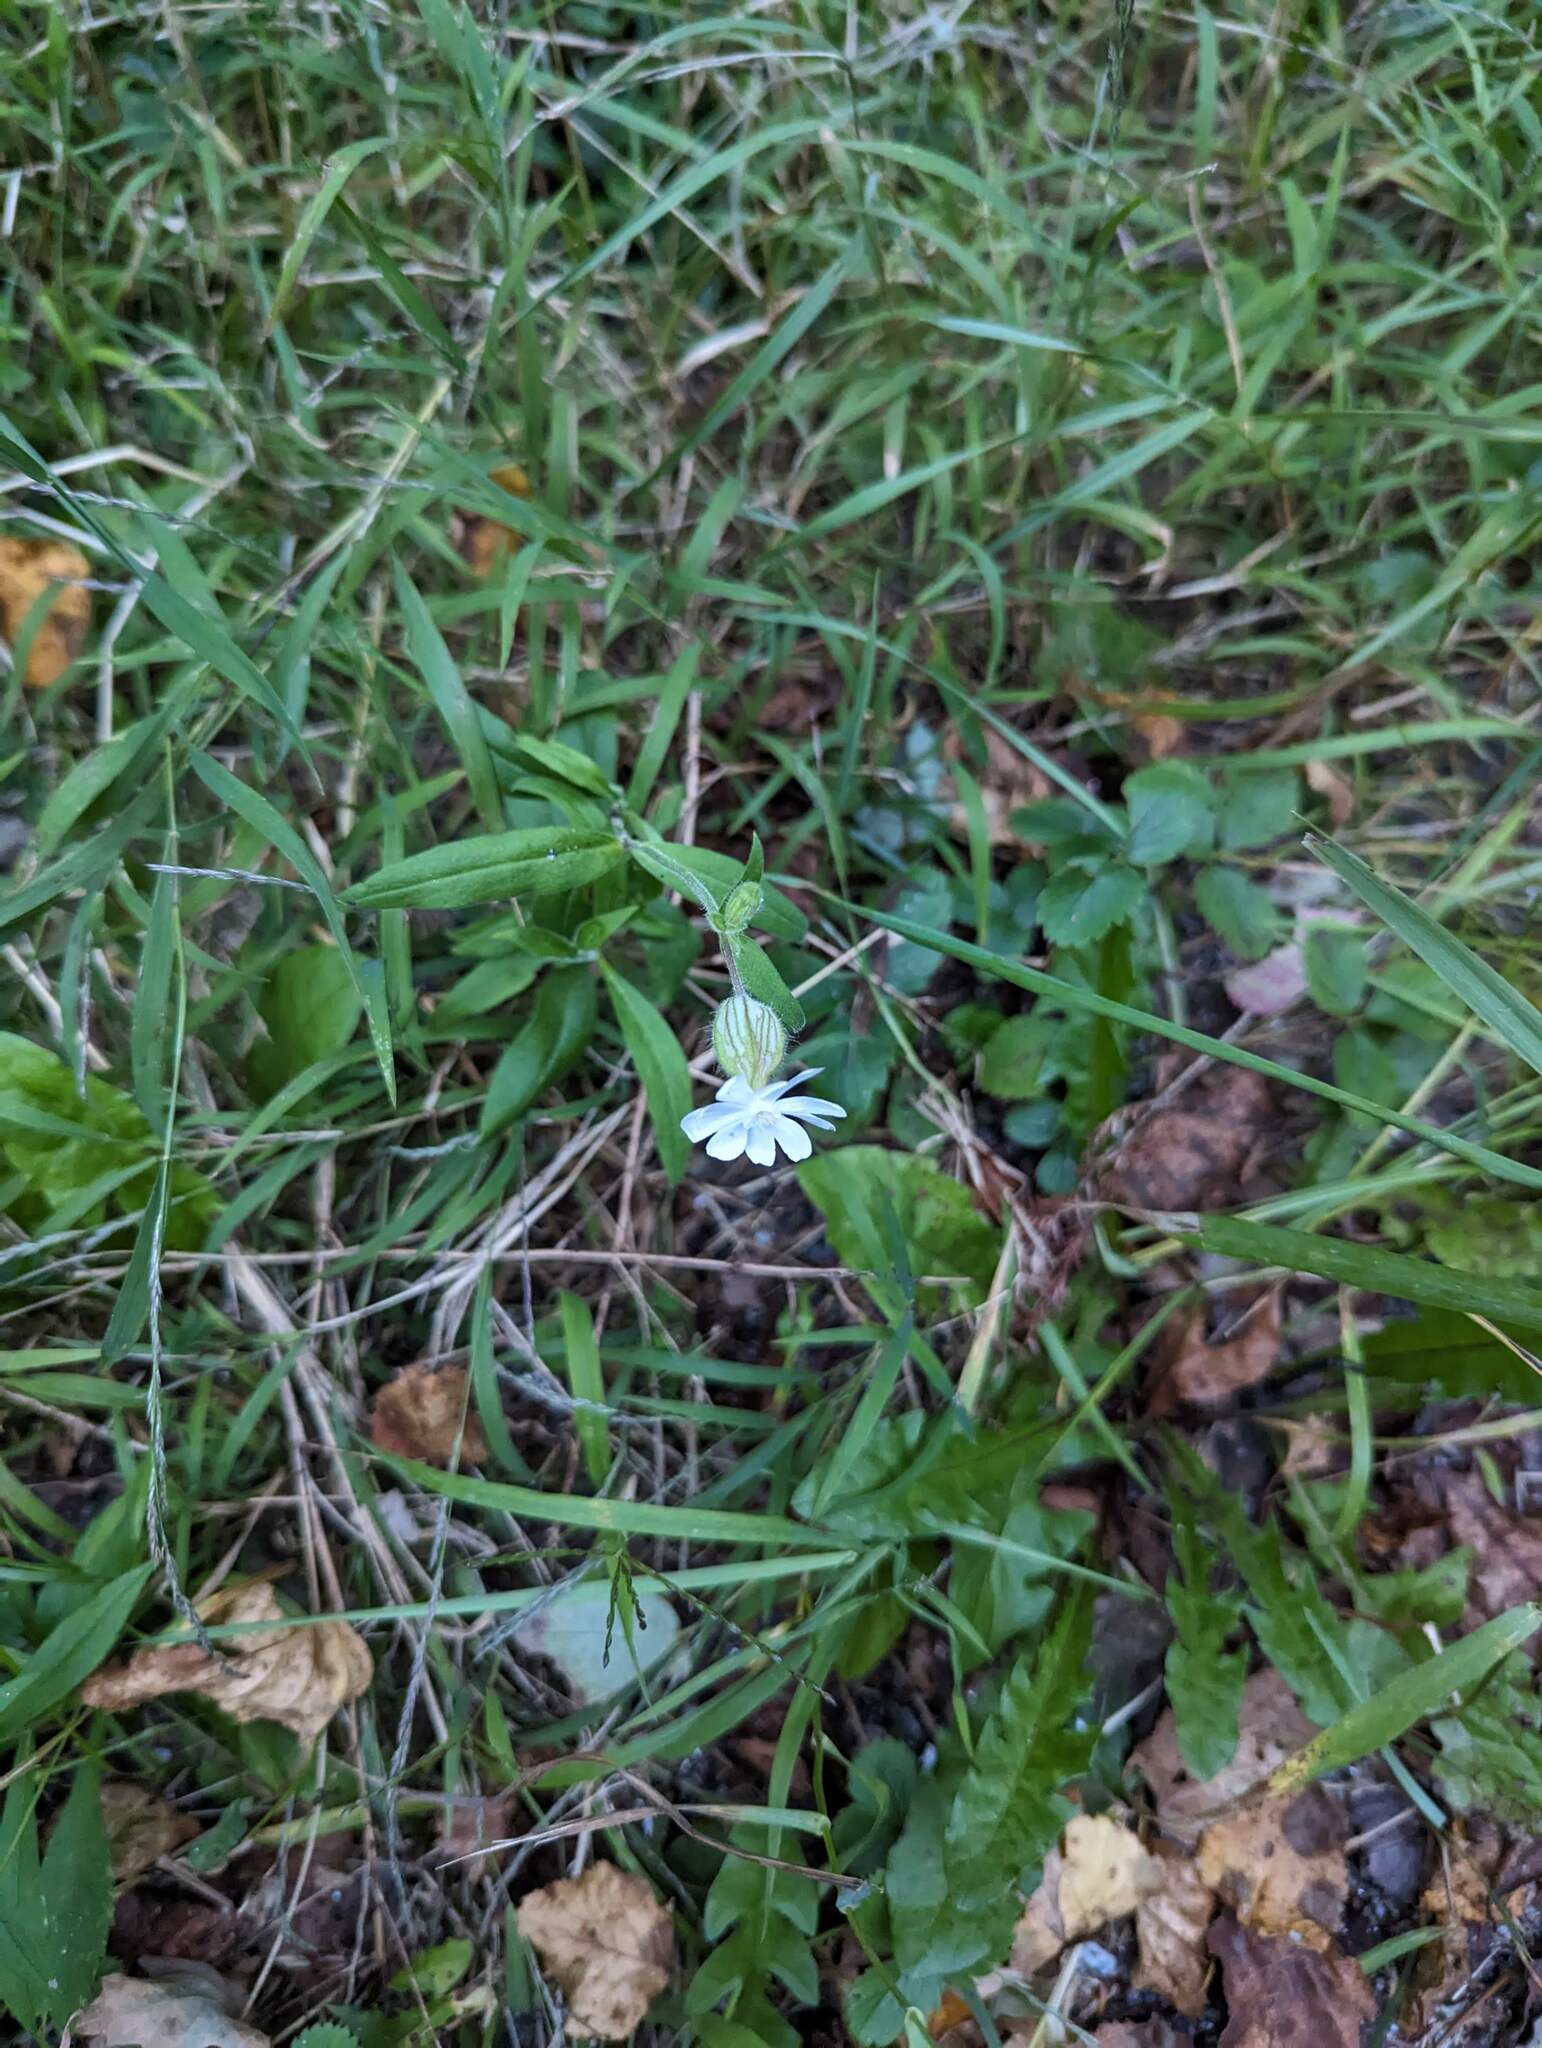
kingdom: Plantae
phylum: Tracheophyta
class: Magnoliopsida
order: Caryophyllales
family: Caryophyllaceae
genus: Silene
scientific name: Silene latifolia
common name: White campion
